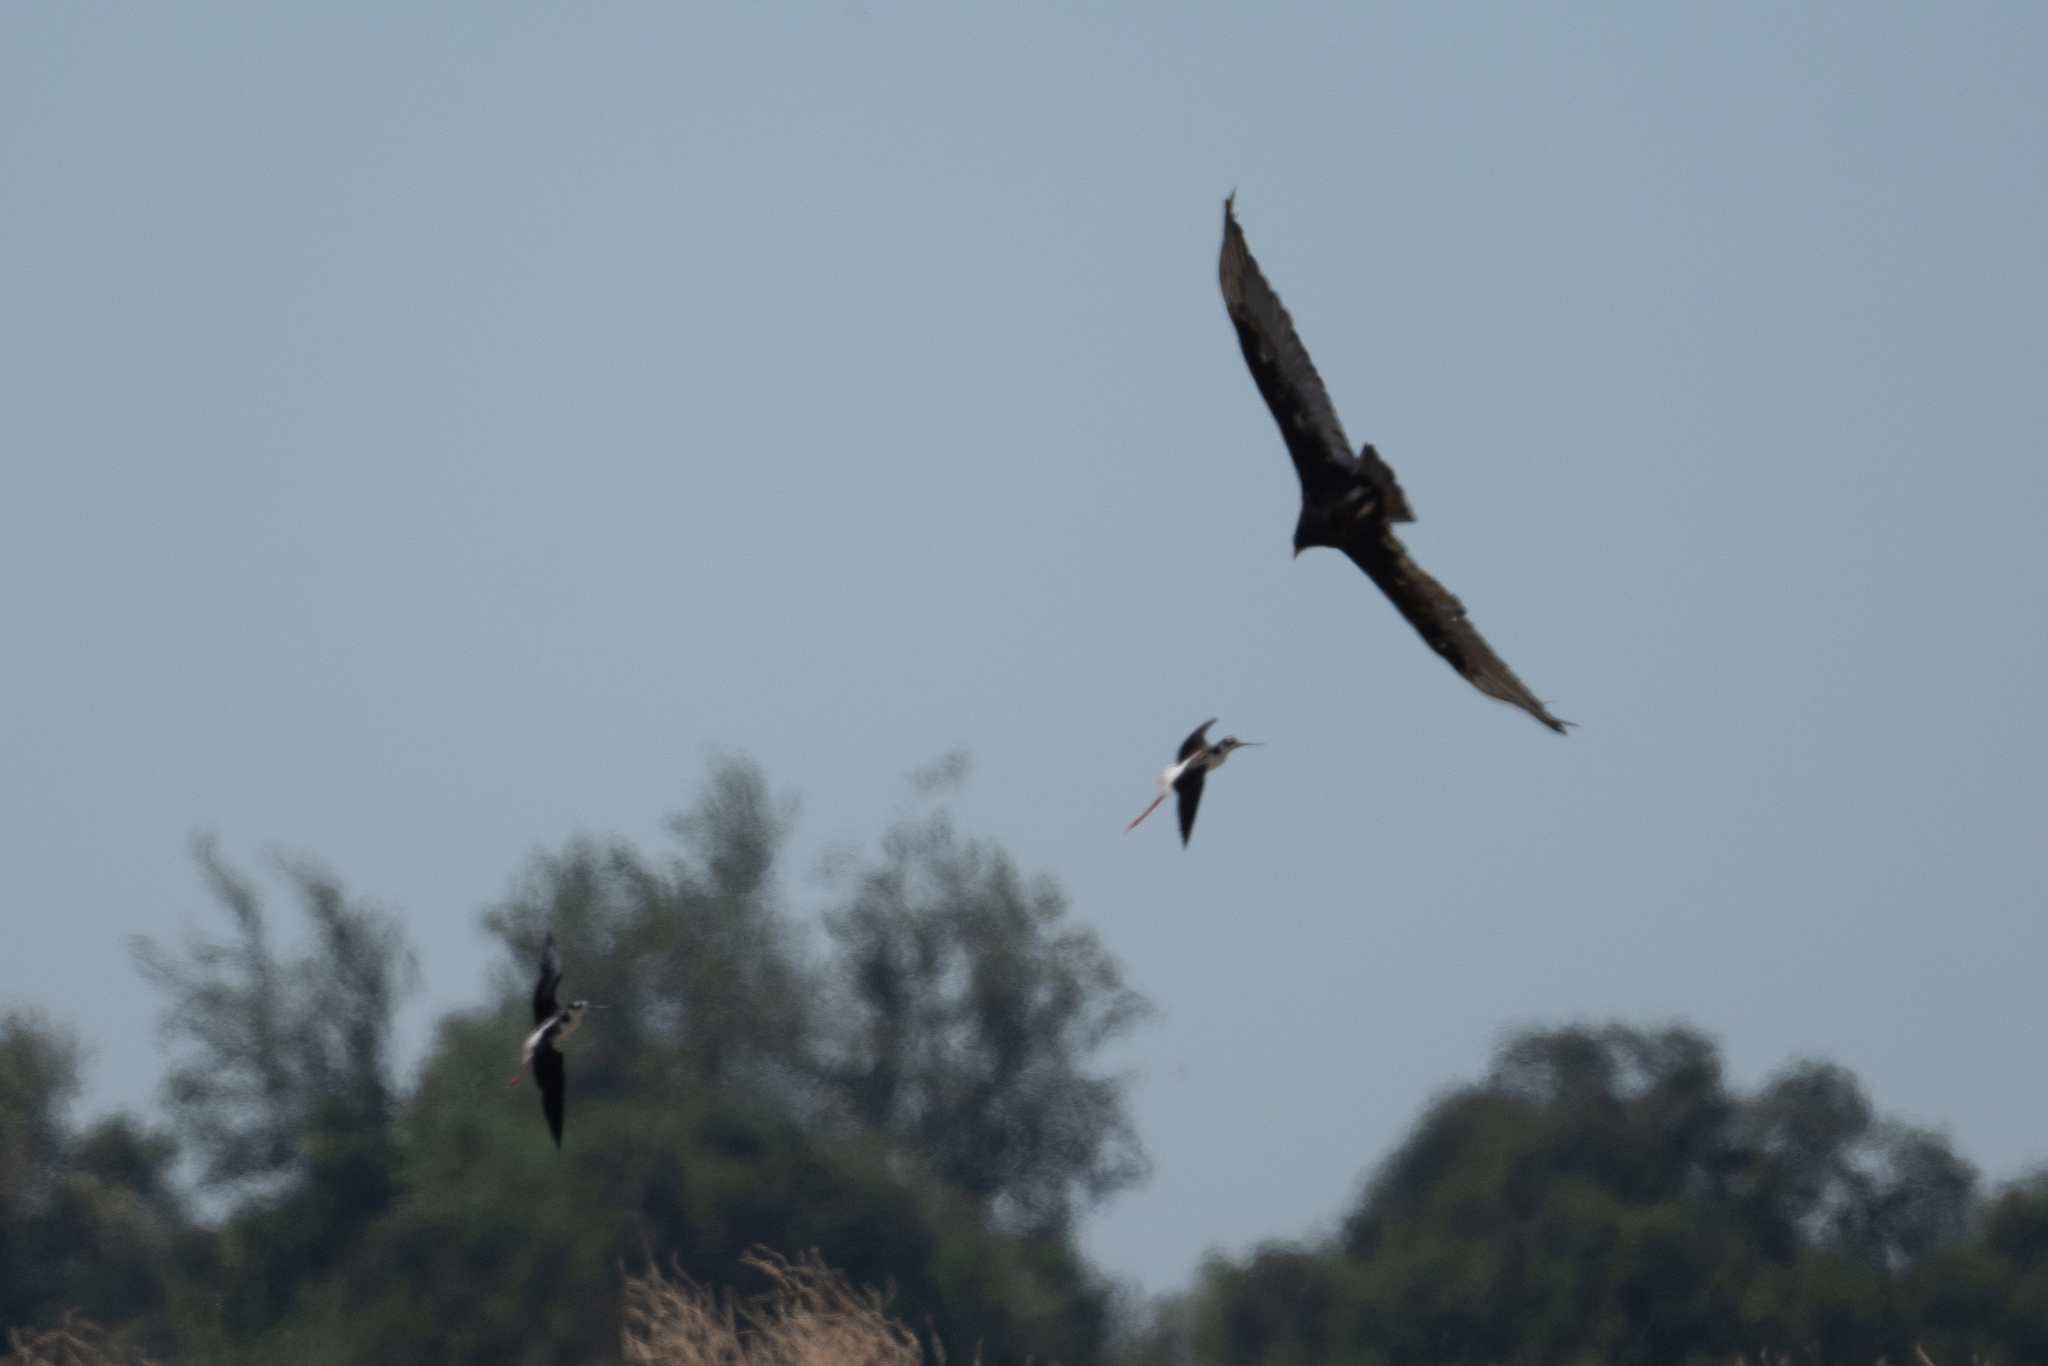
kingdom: Animalia
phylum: Chordata
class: Aves
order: Accipitriformes
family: Cathartidae
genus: Cathartes
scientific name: Cathartes aura
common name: Turkey vulture
